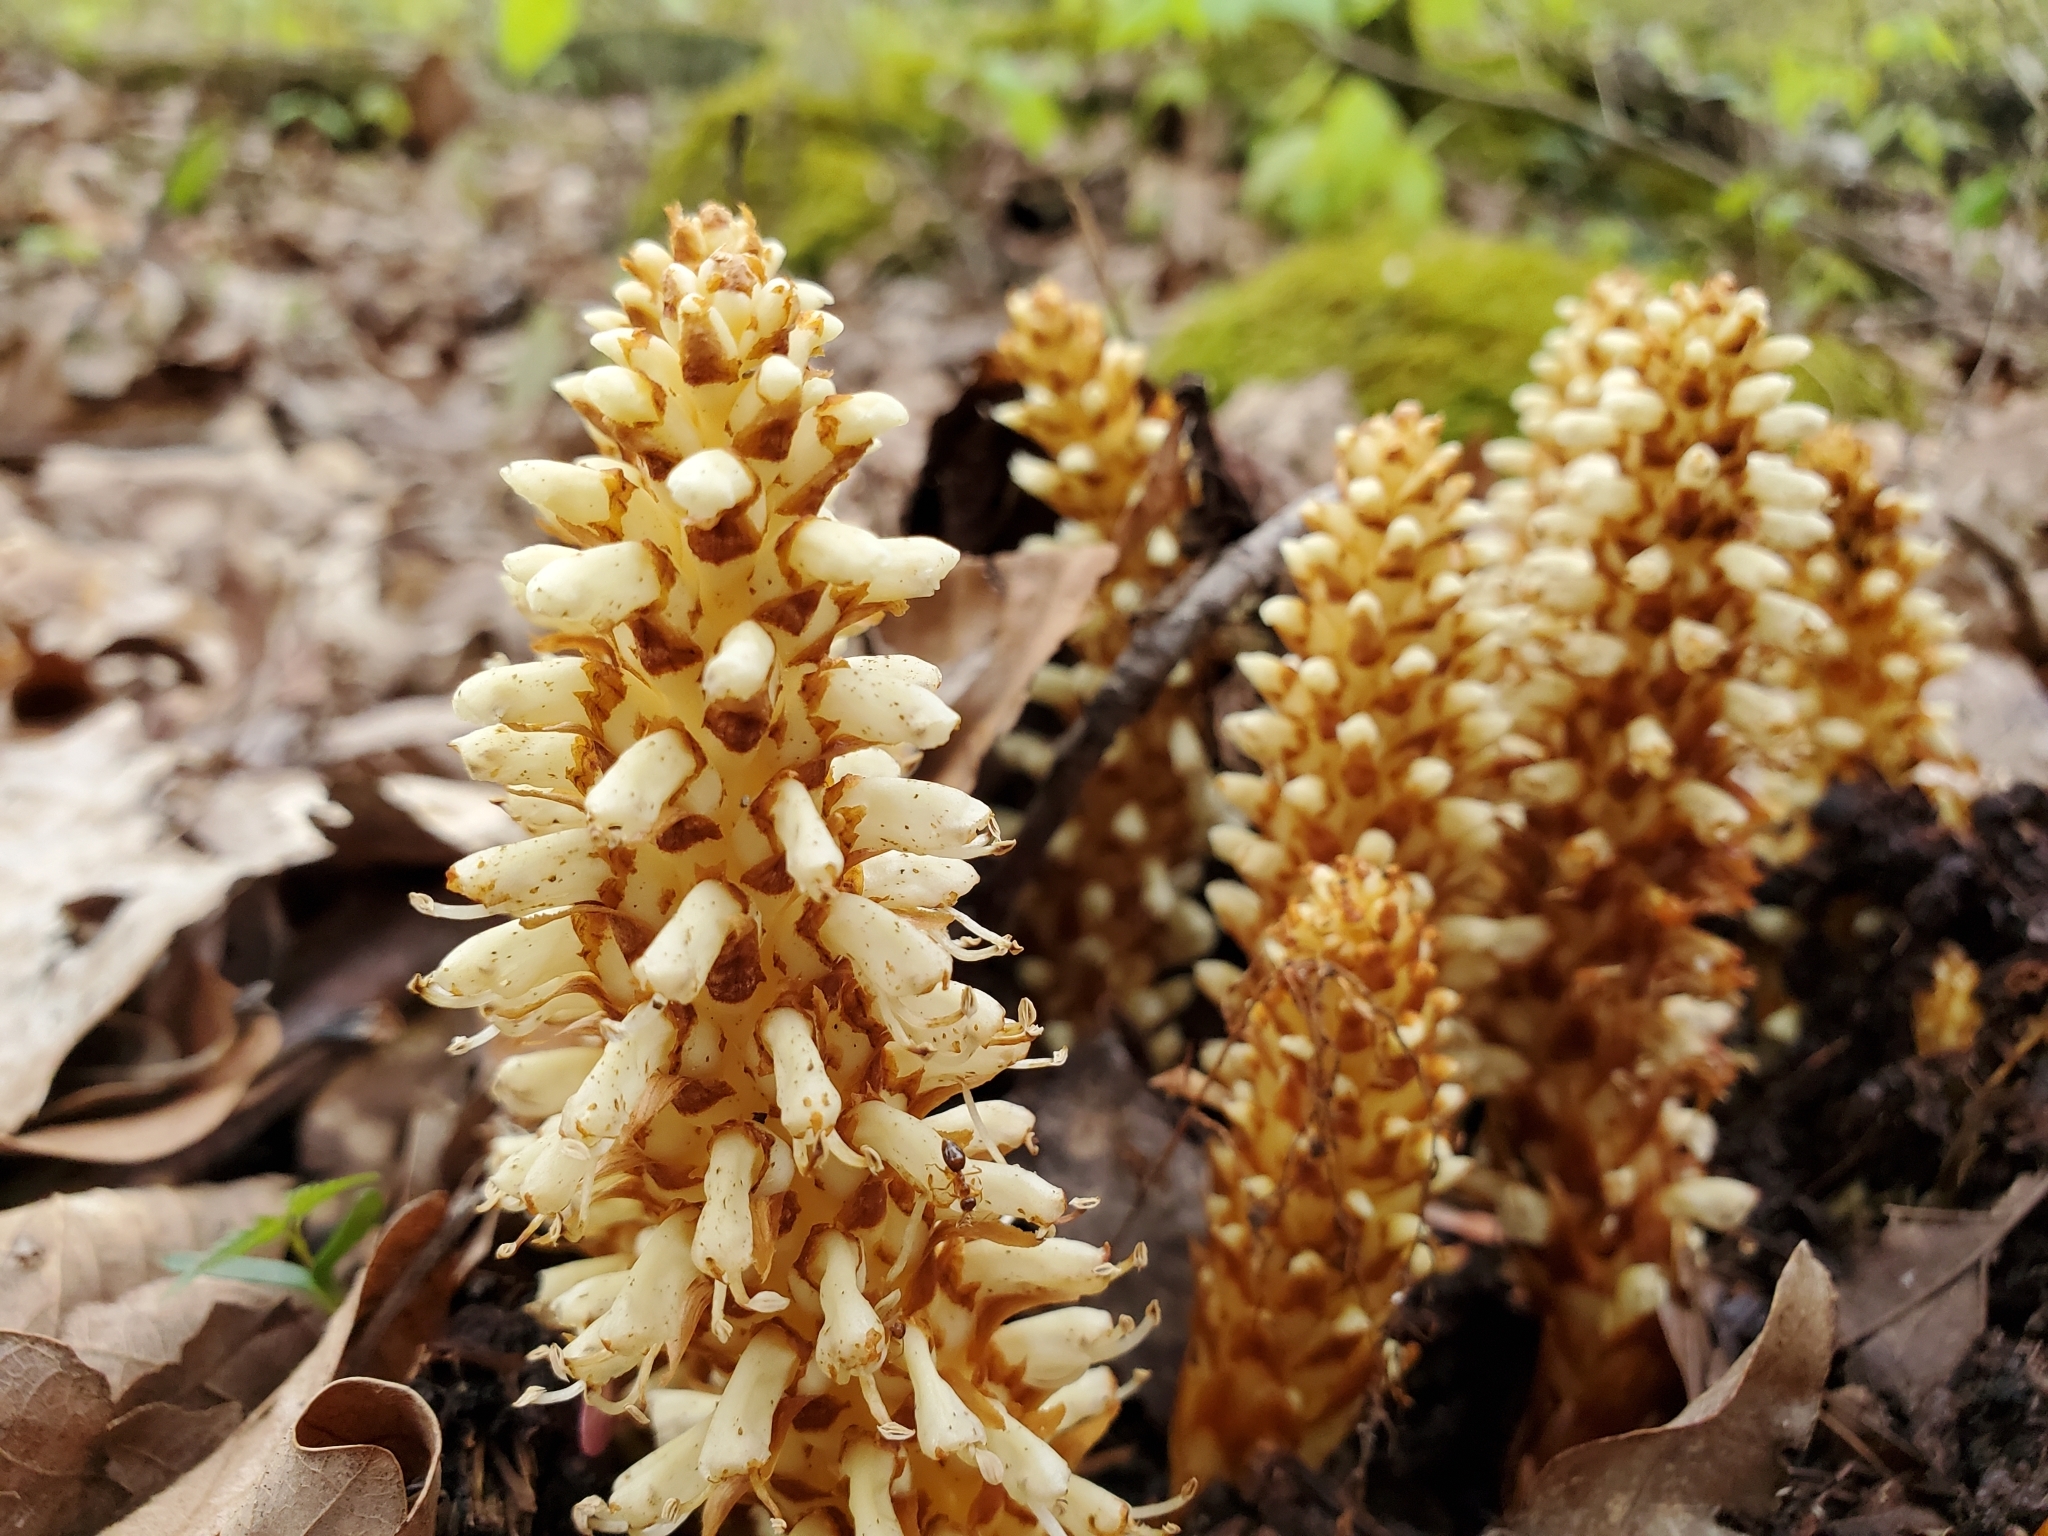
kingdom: Plantae
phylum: Tracheophyta
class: Magnoliopsida
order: Lamiales
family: Orobanchaceae
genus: Conopholis
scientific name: Conopholis americana
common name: American cancer-root
